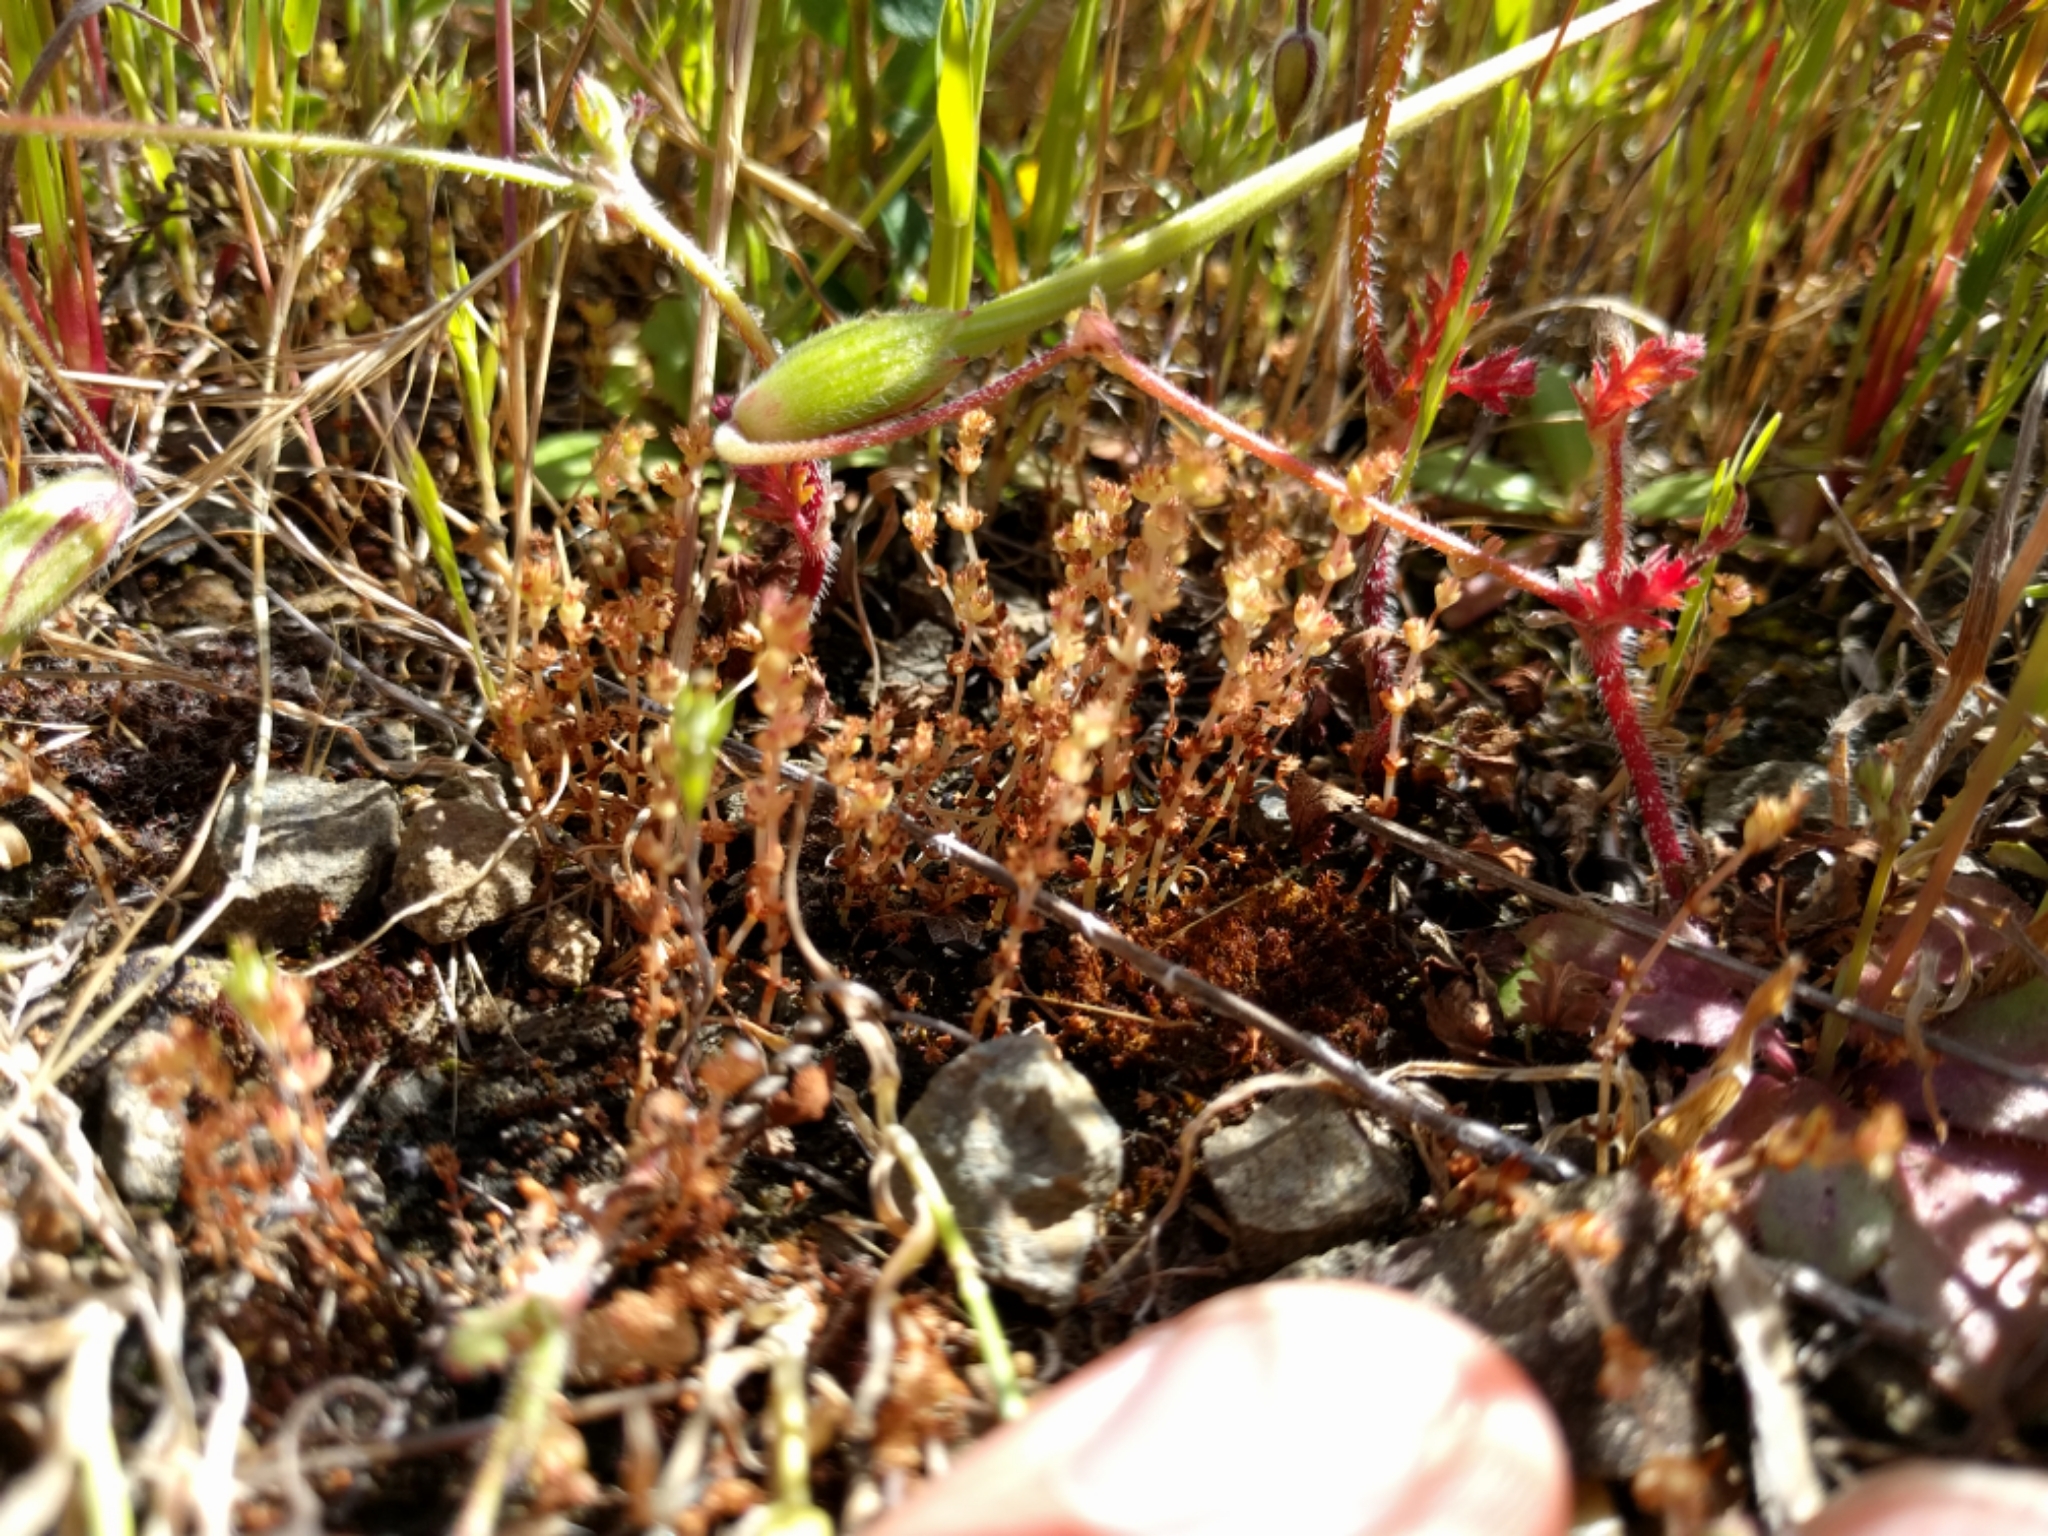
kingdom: Plantae
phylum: Tracheophyta
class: Magnoliopsida
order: Saxifragales
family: Crassulaceae
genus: Crassula
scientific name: Crassula connata
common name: Erect pygmyweed
